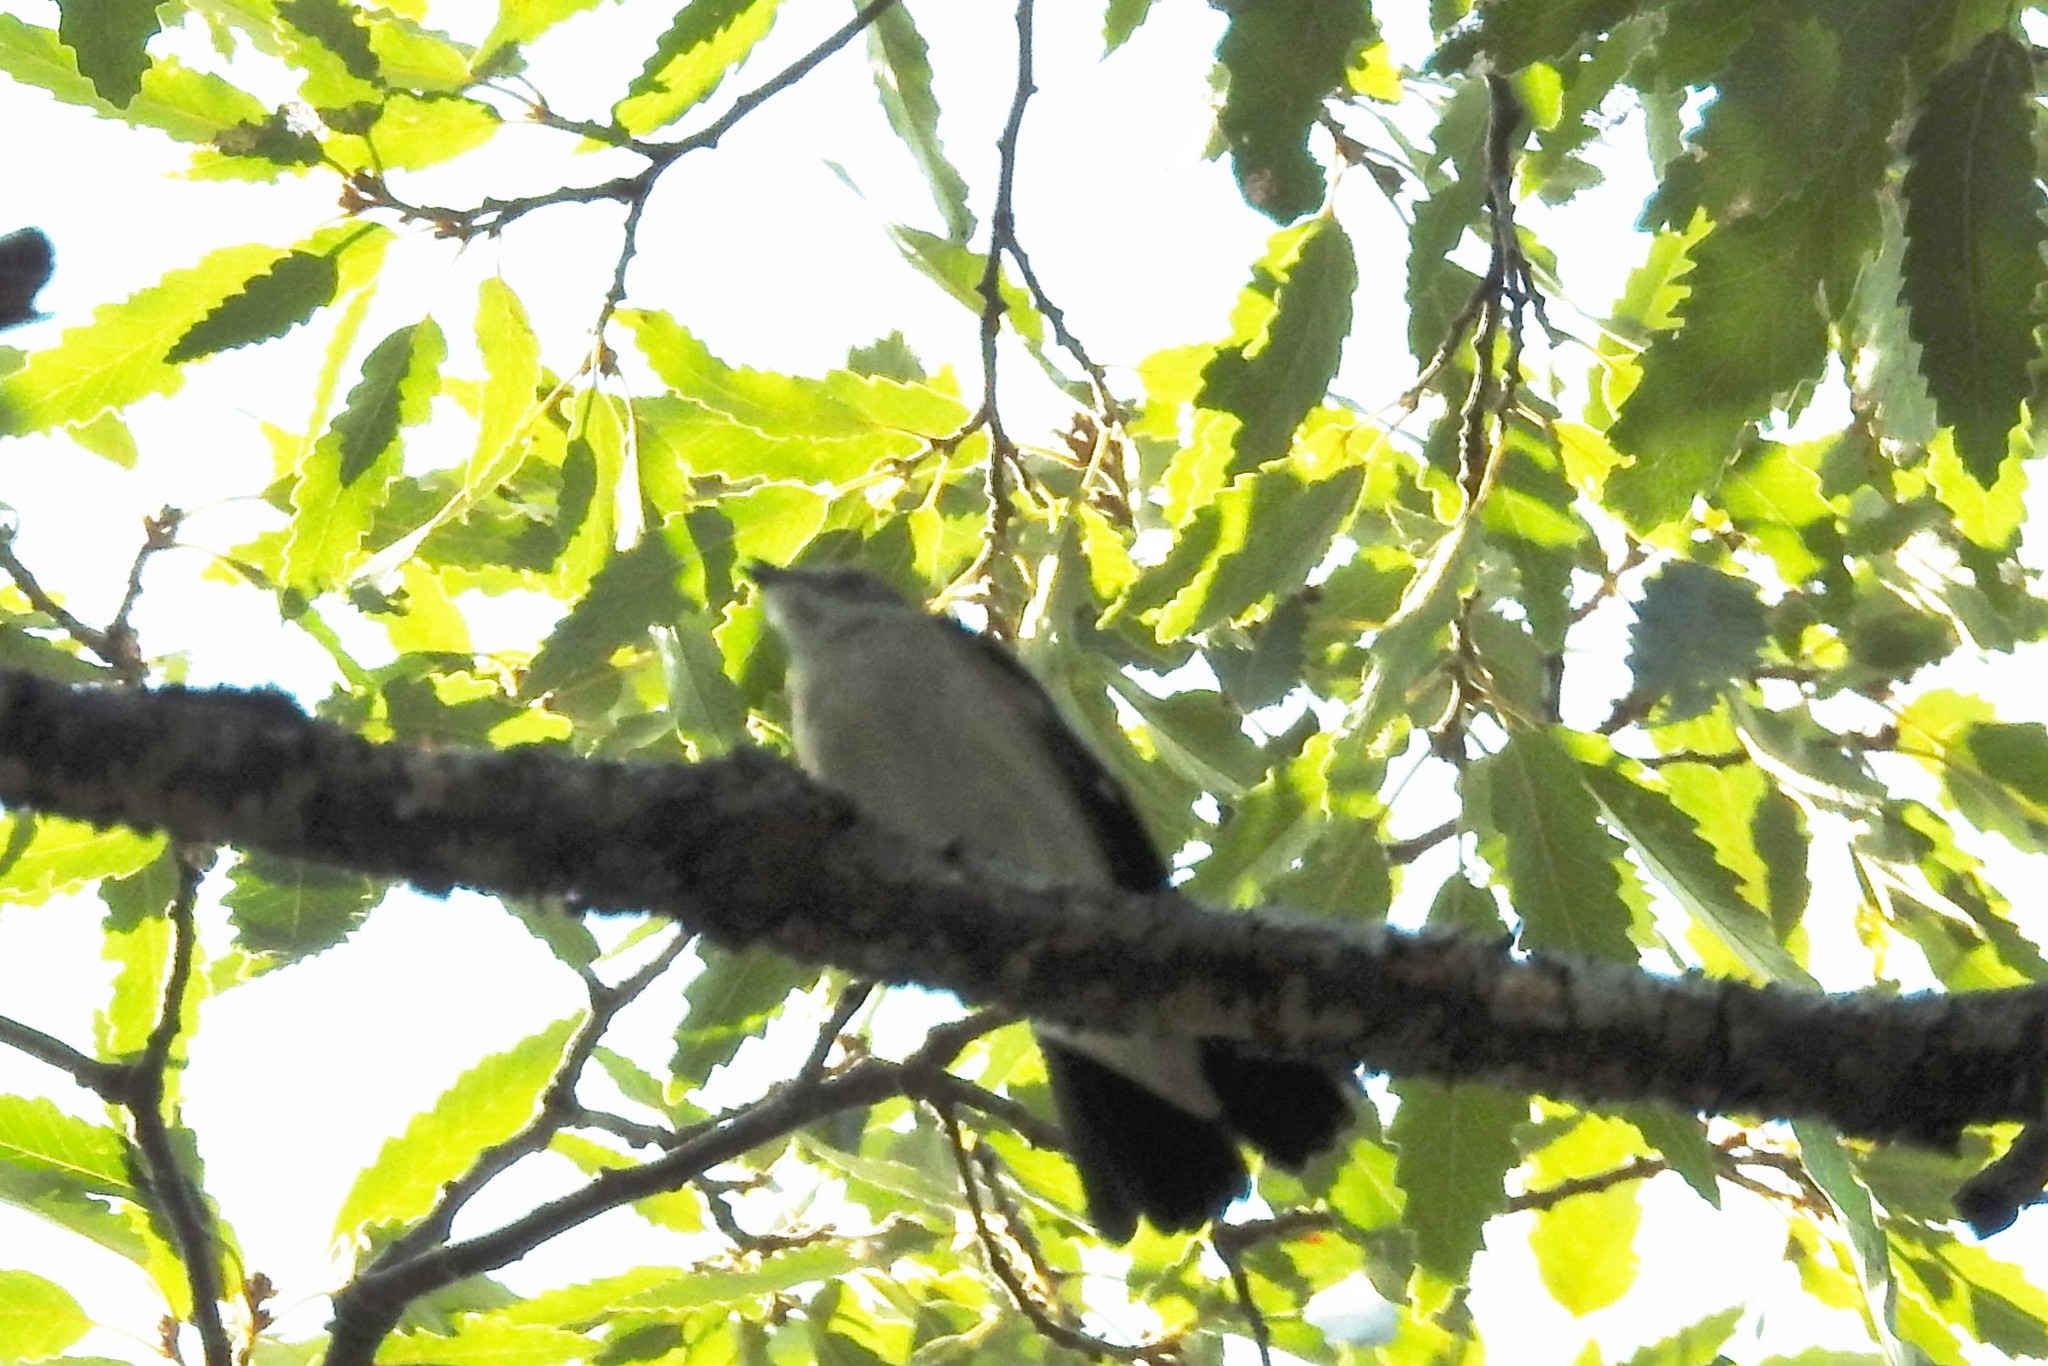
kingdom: Animalia
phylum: Chordata
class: Aves
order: Passeriformes
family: Muscicapidae
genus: Ficedula
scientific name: Ficedula hypoleuca
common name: European pied flycatcher
